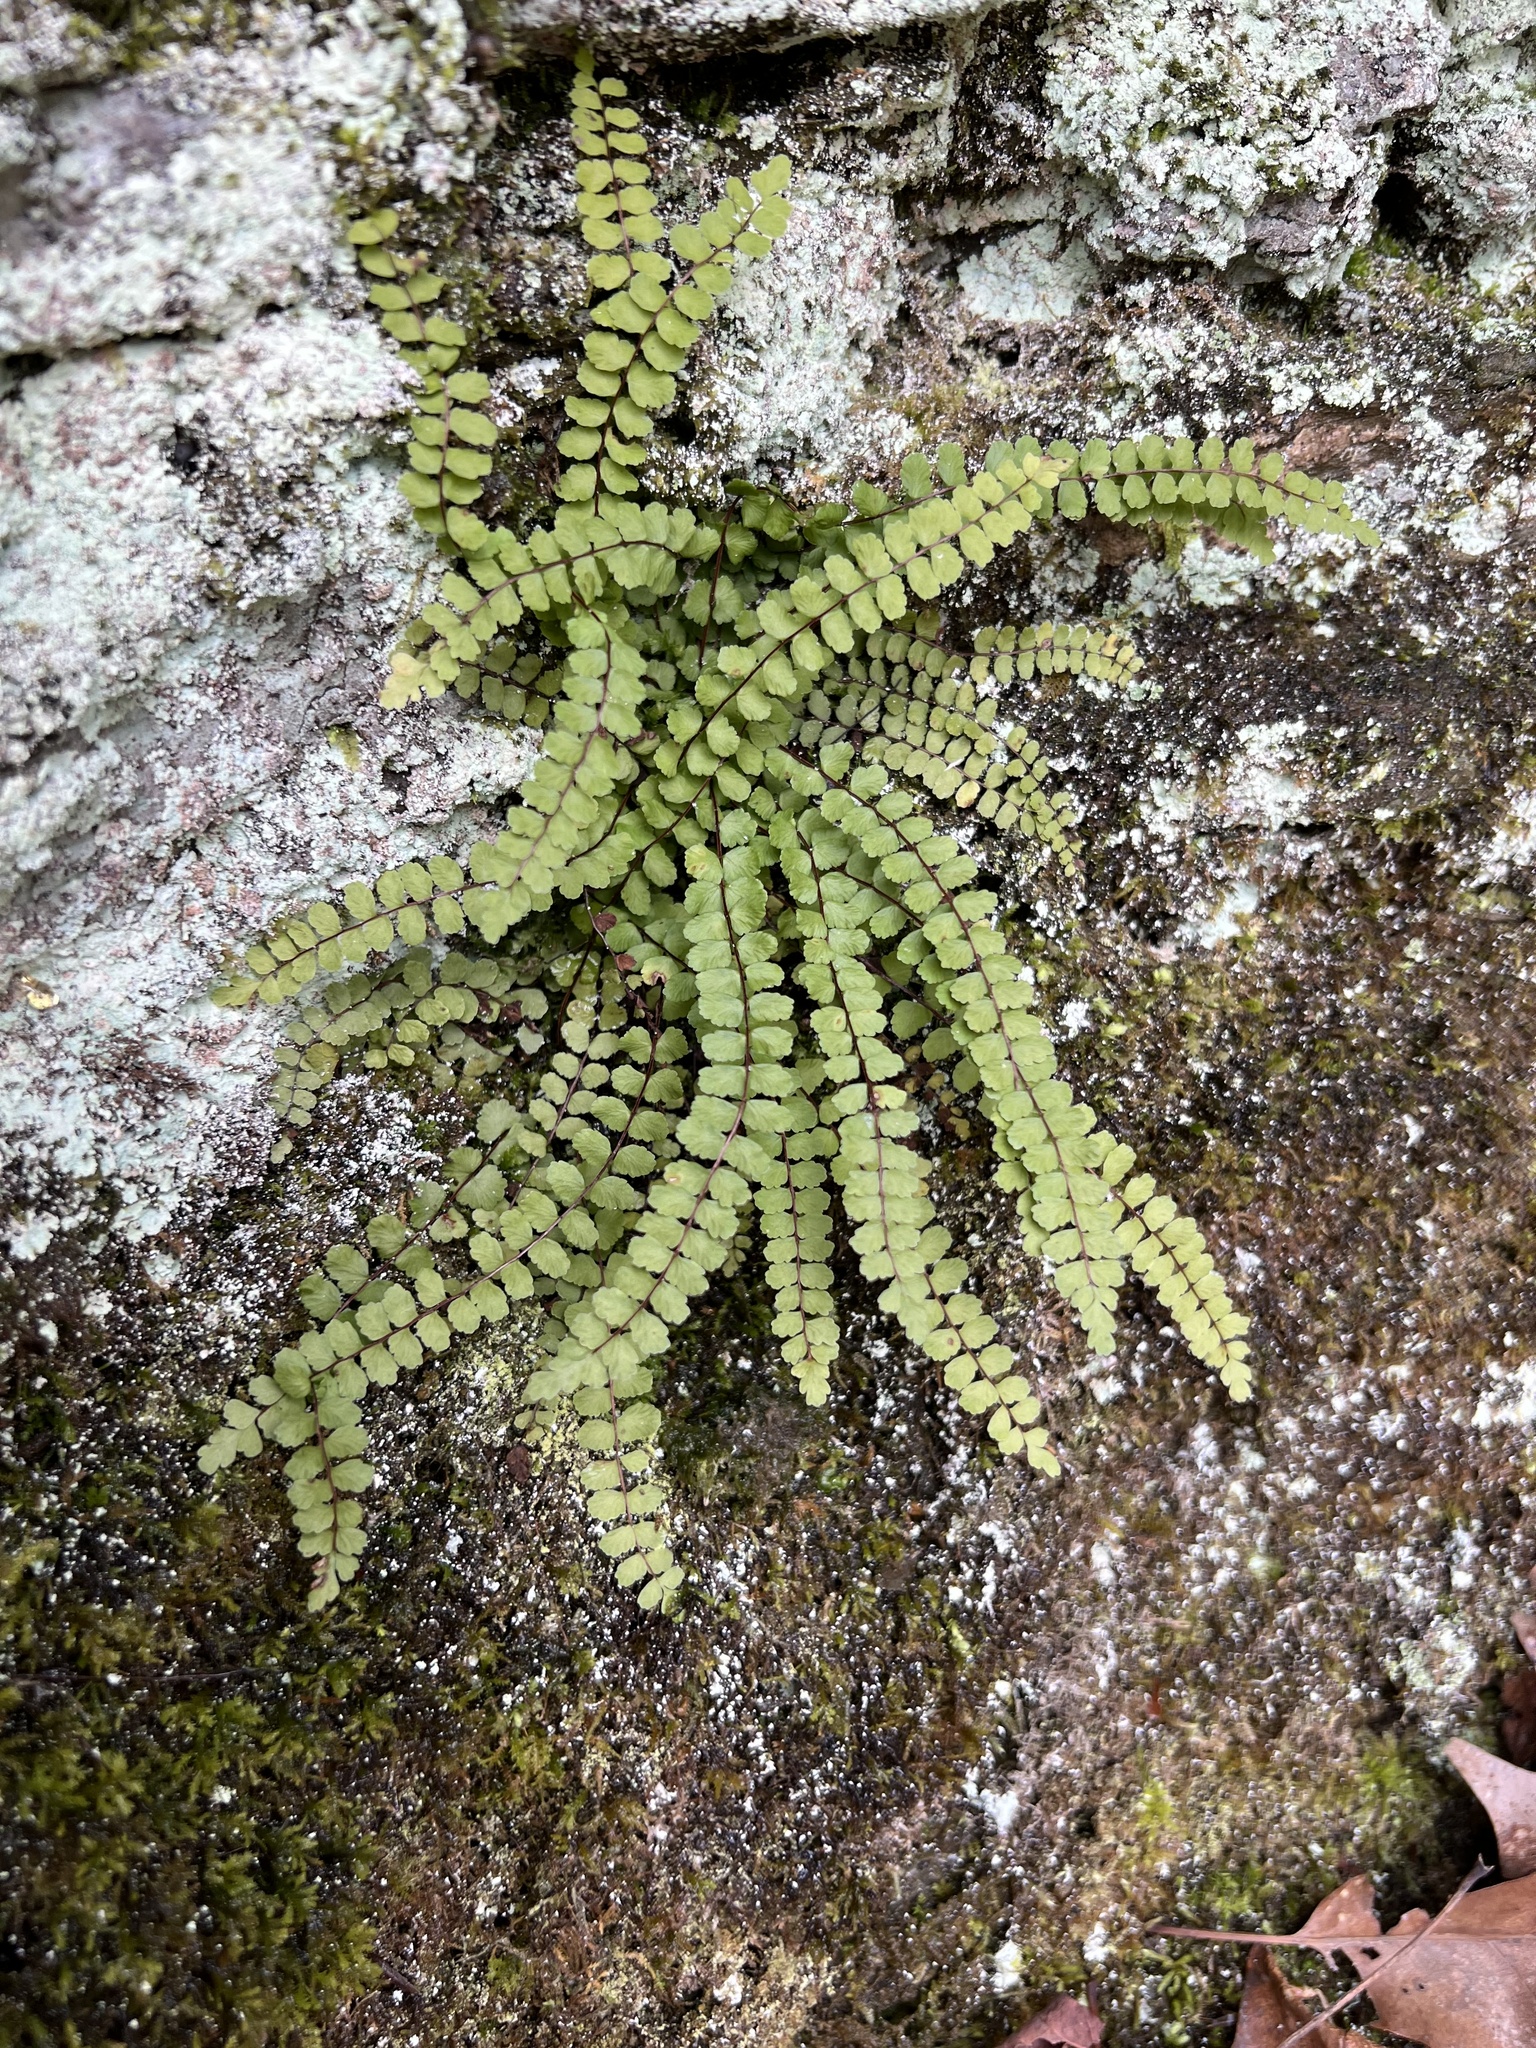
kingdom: Plantae
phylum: Tracheophyta
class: Polypodiopsida
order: Polypodiales
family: Aspleniaceae
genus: Asplenium
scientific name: Asplenium trichomanes
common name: Maidenhair spleenwort
